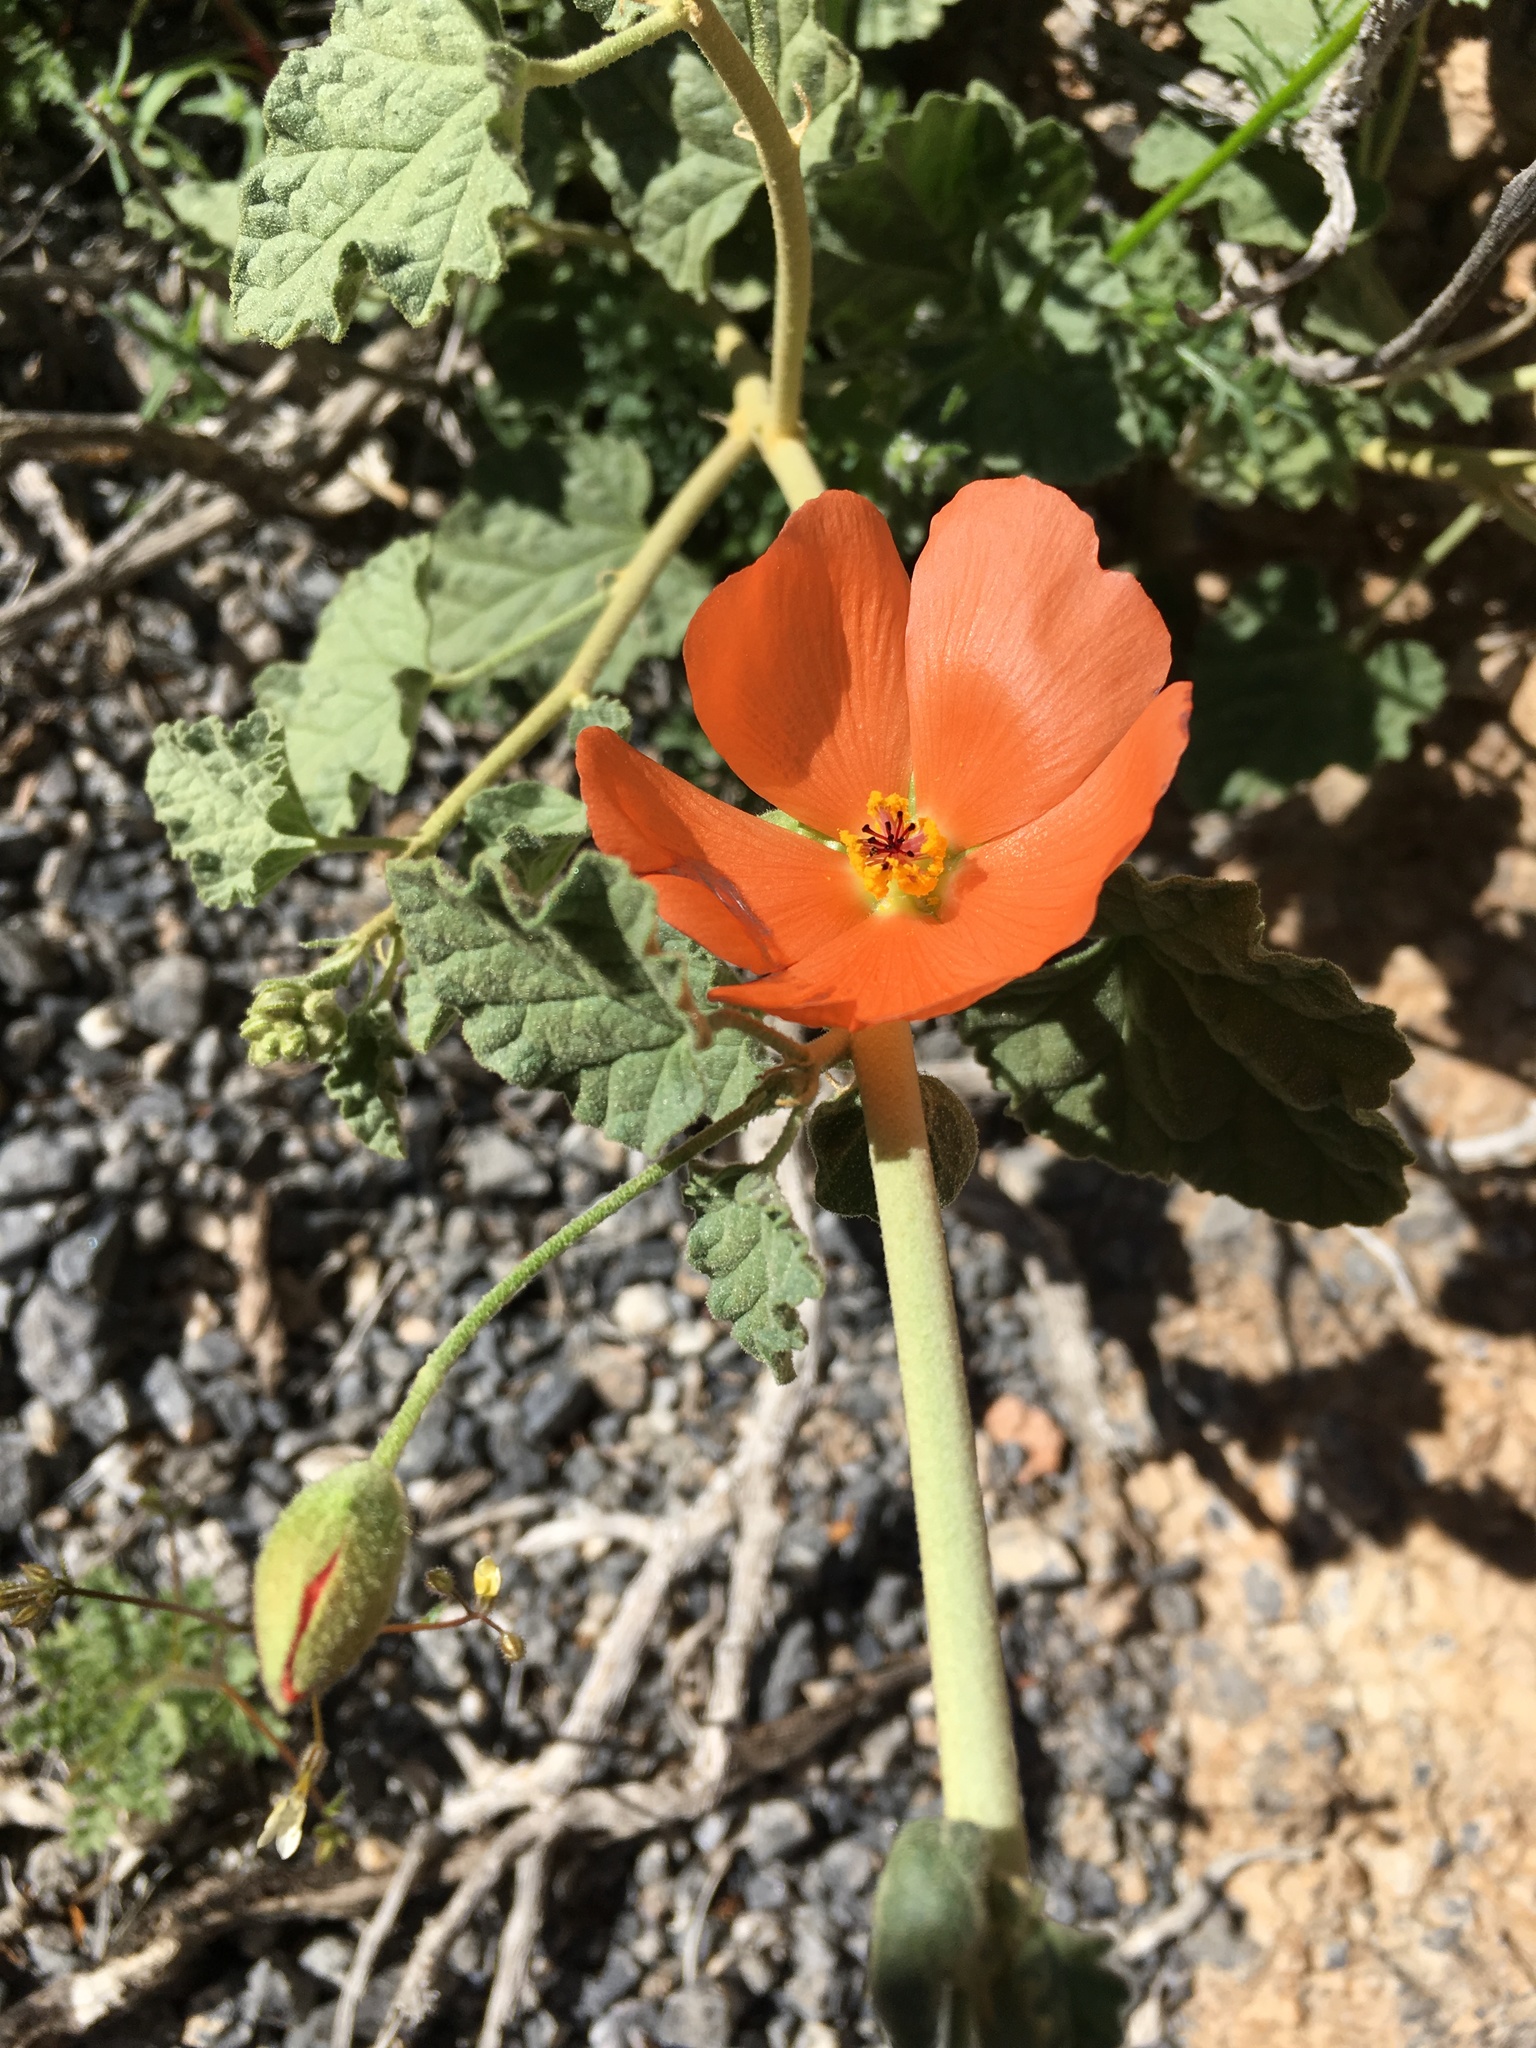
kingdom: Plantae
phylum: Tracheophyta
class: Magnoliopsida
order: Malvales
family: Malvaceae
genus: Sphaeralcea
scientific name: Sphaeralcea ambigua
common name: Apricot globe-mallow
